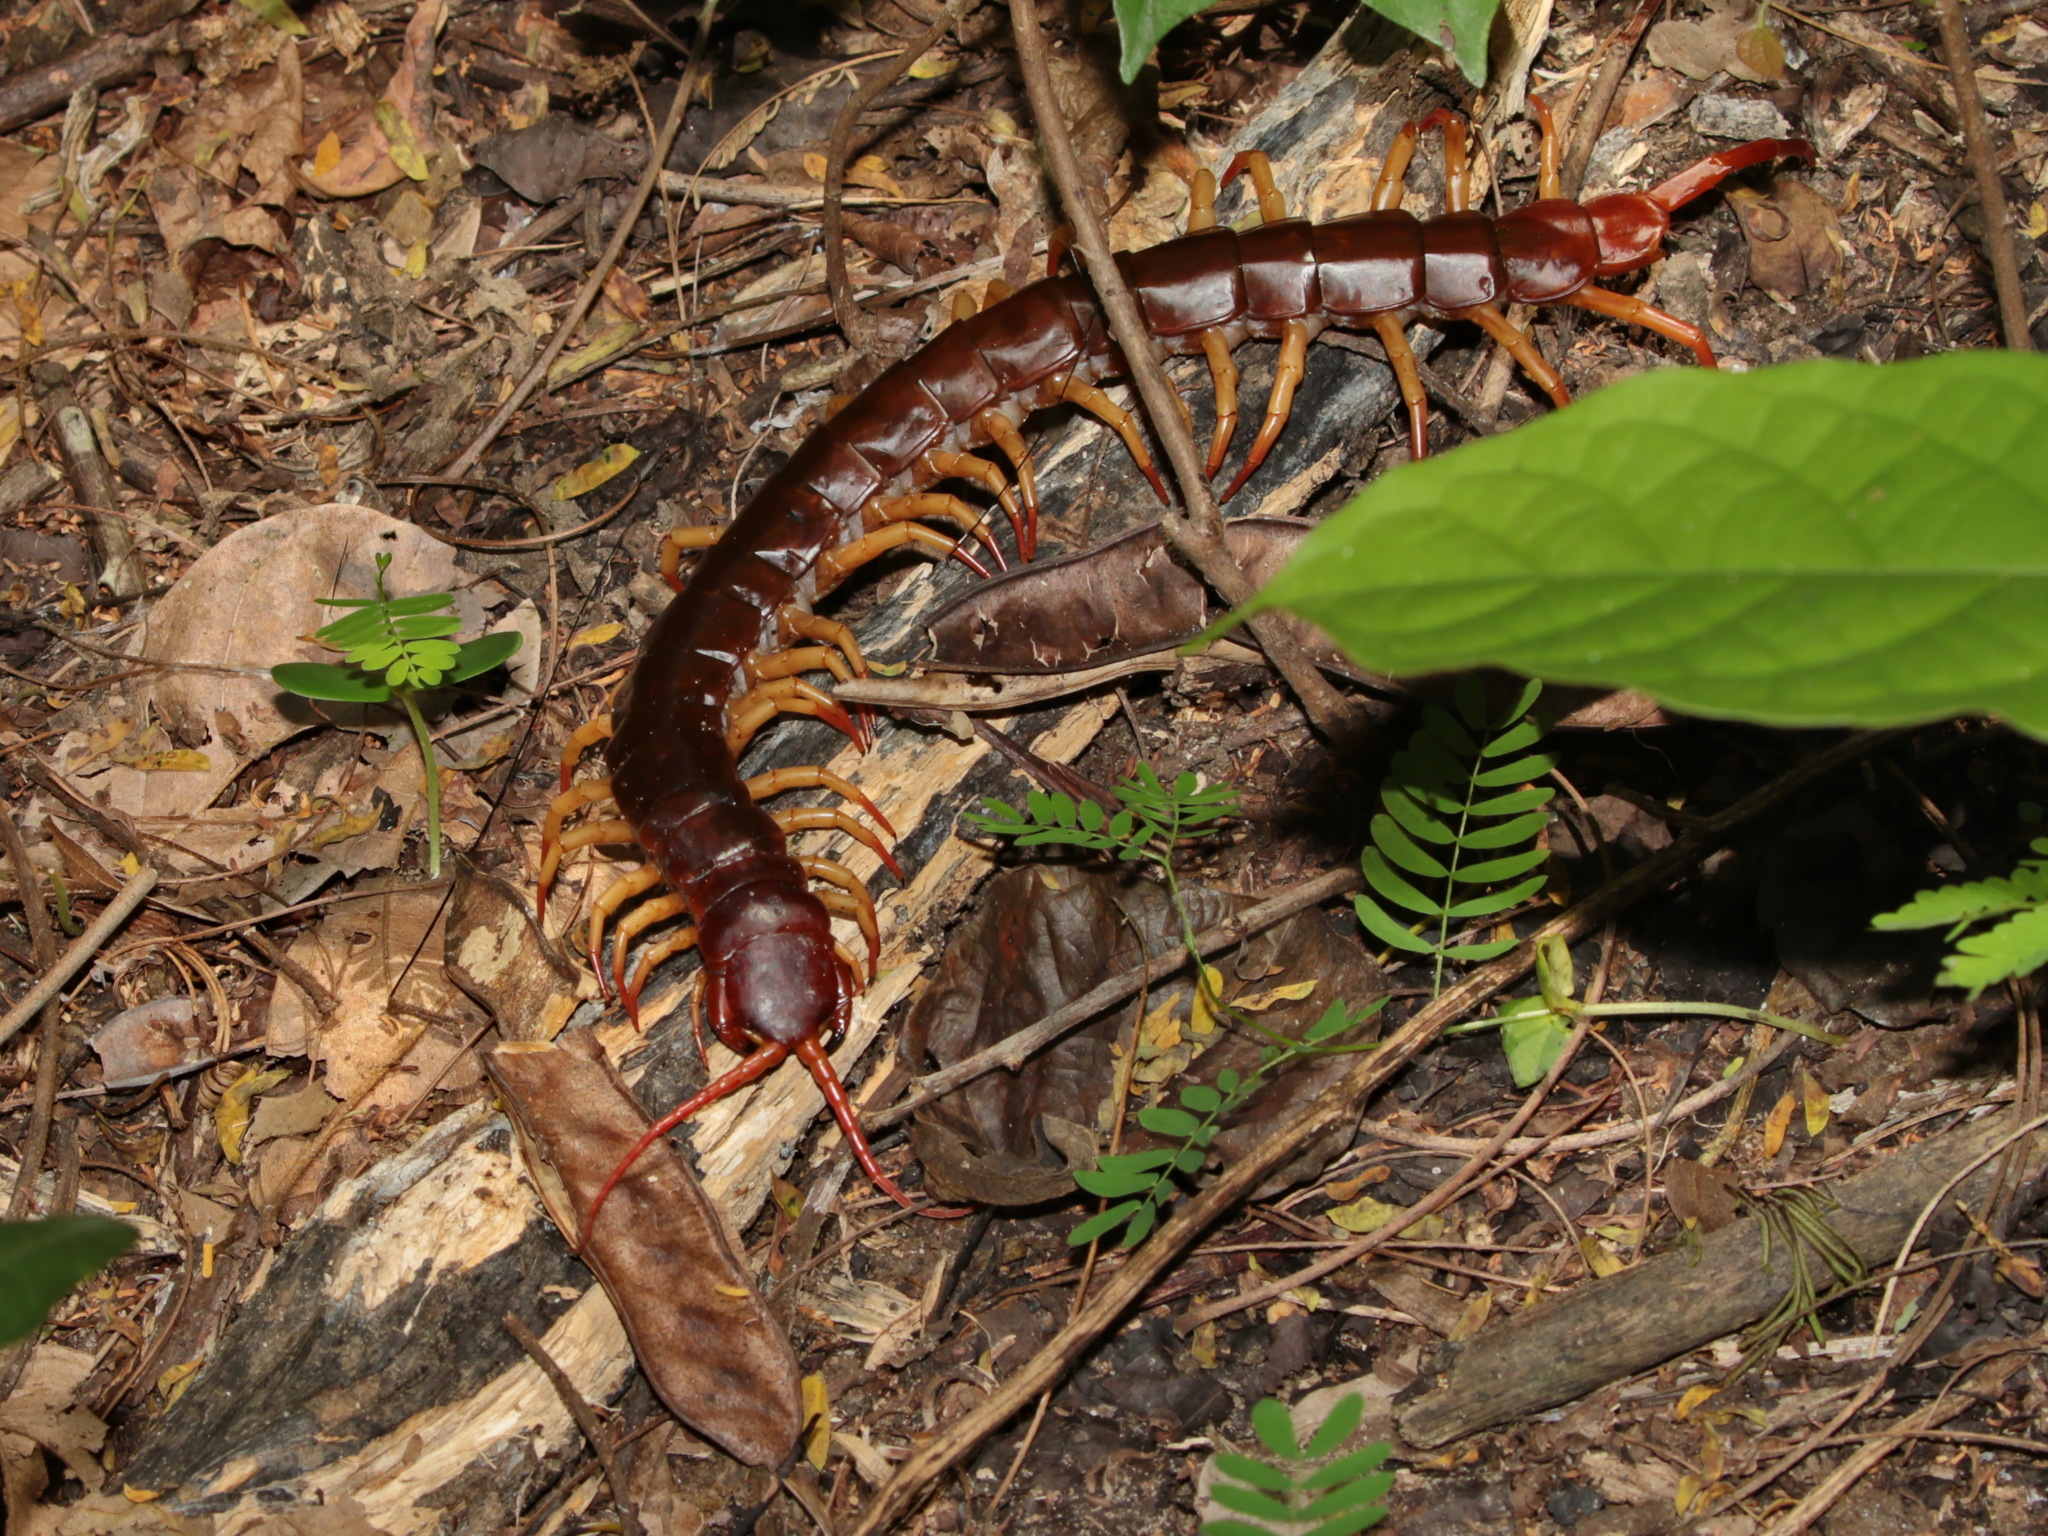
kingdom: Animalia
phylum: Arthropoda
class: Chilopoda
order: Scolopendromorpha
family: Scolopendridae
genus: Scolopendra
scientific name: Scolopendra dehaani
